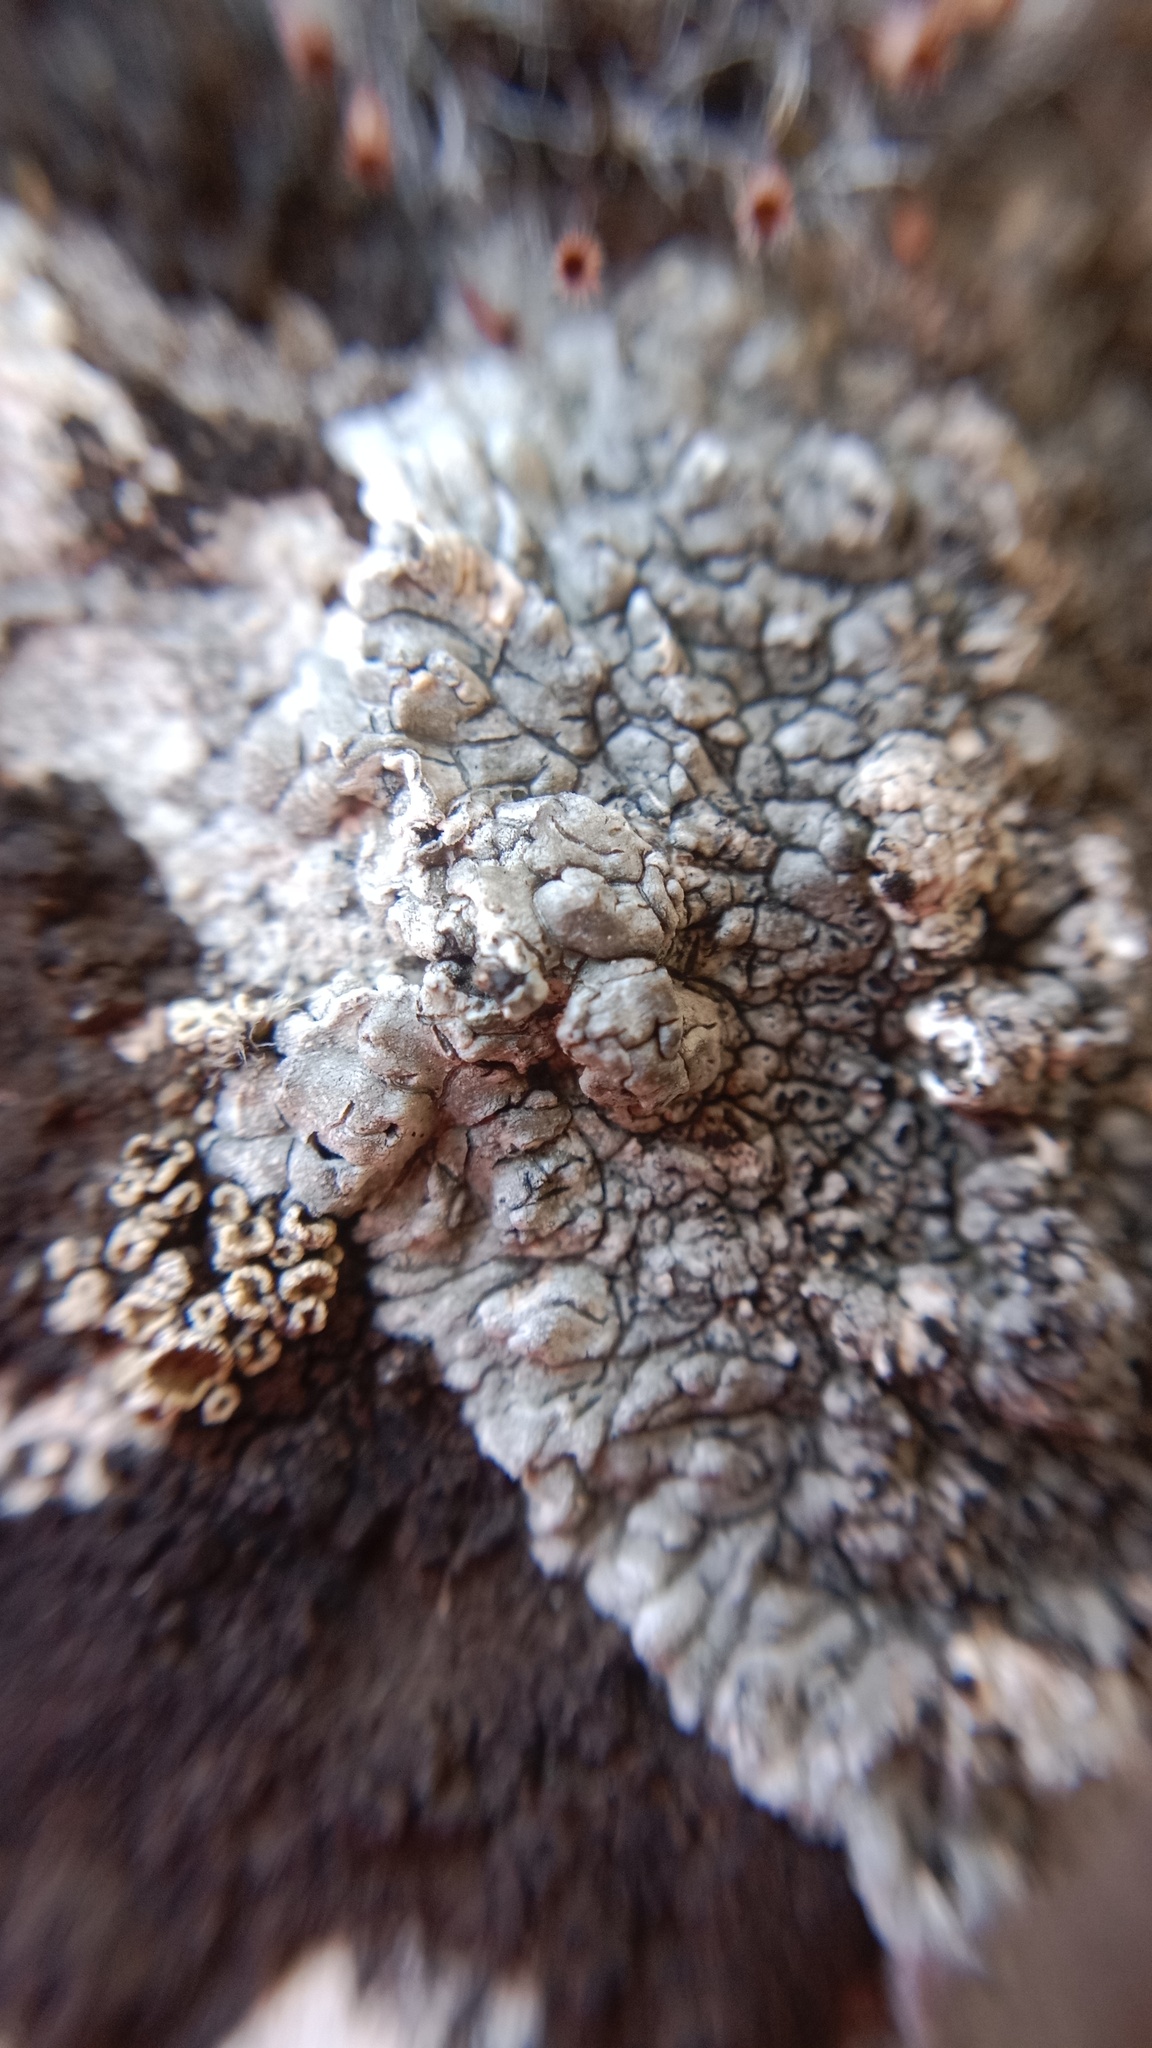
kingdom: Fungi
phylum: Ascomycota
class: Lecanoromycetes
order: Pertusariales
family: Megasporaceae
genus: Lobothallia
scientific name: Lobothallia radiosa
